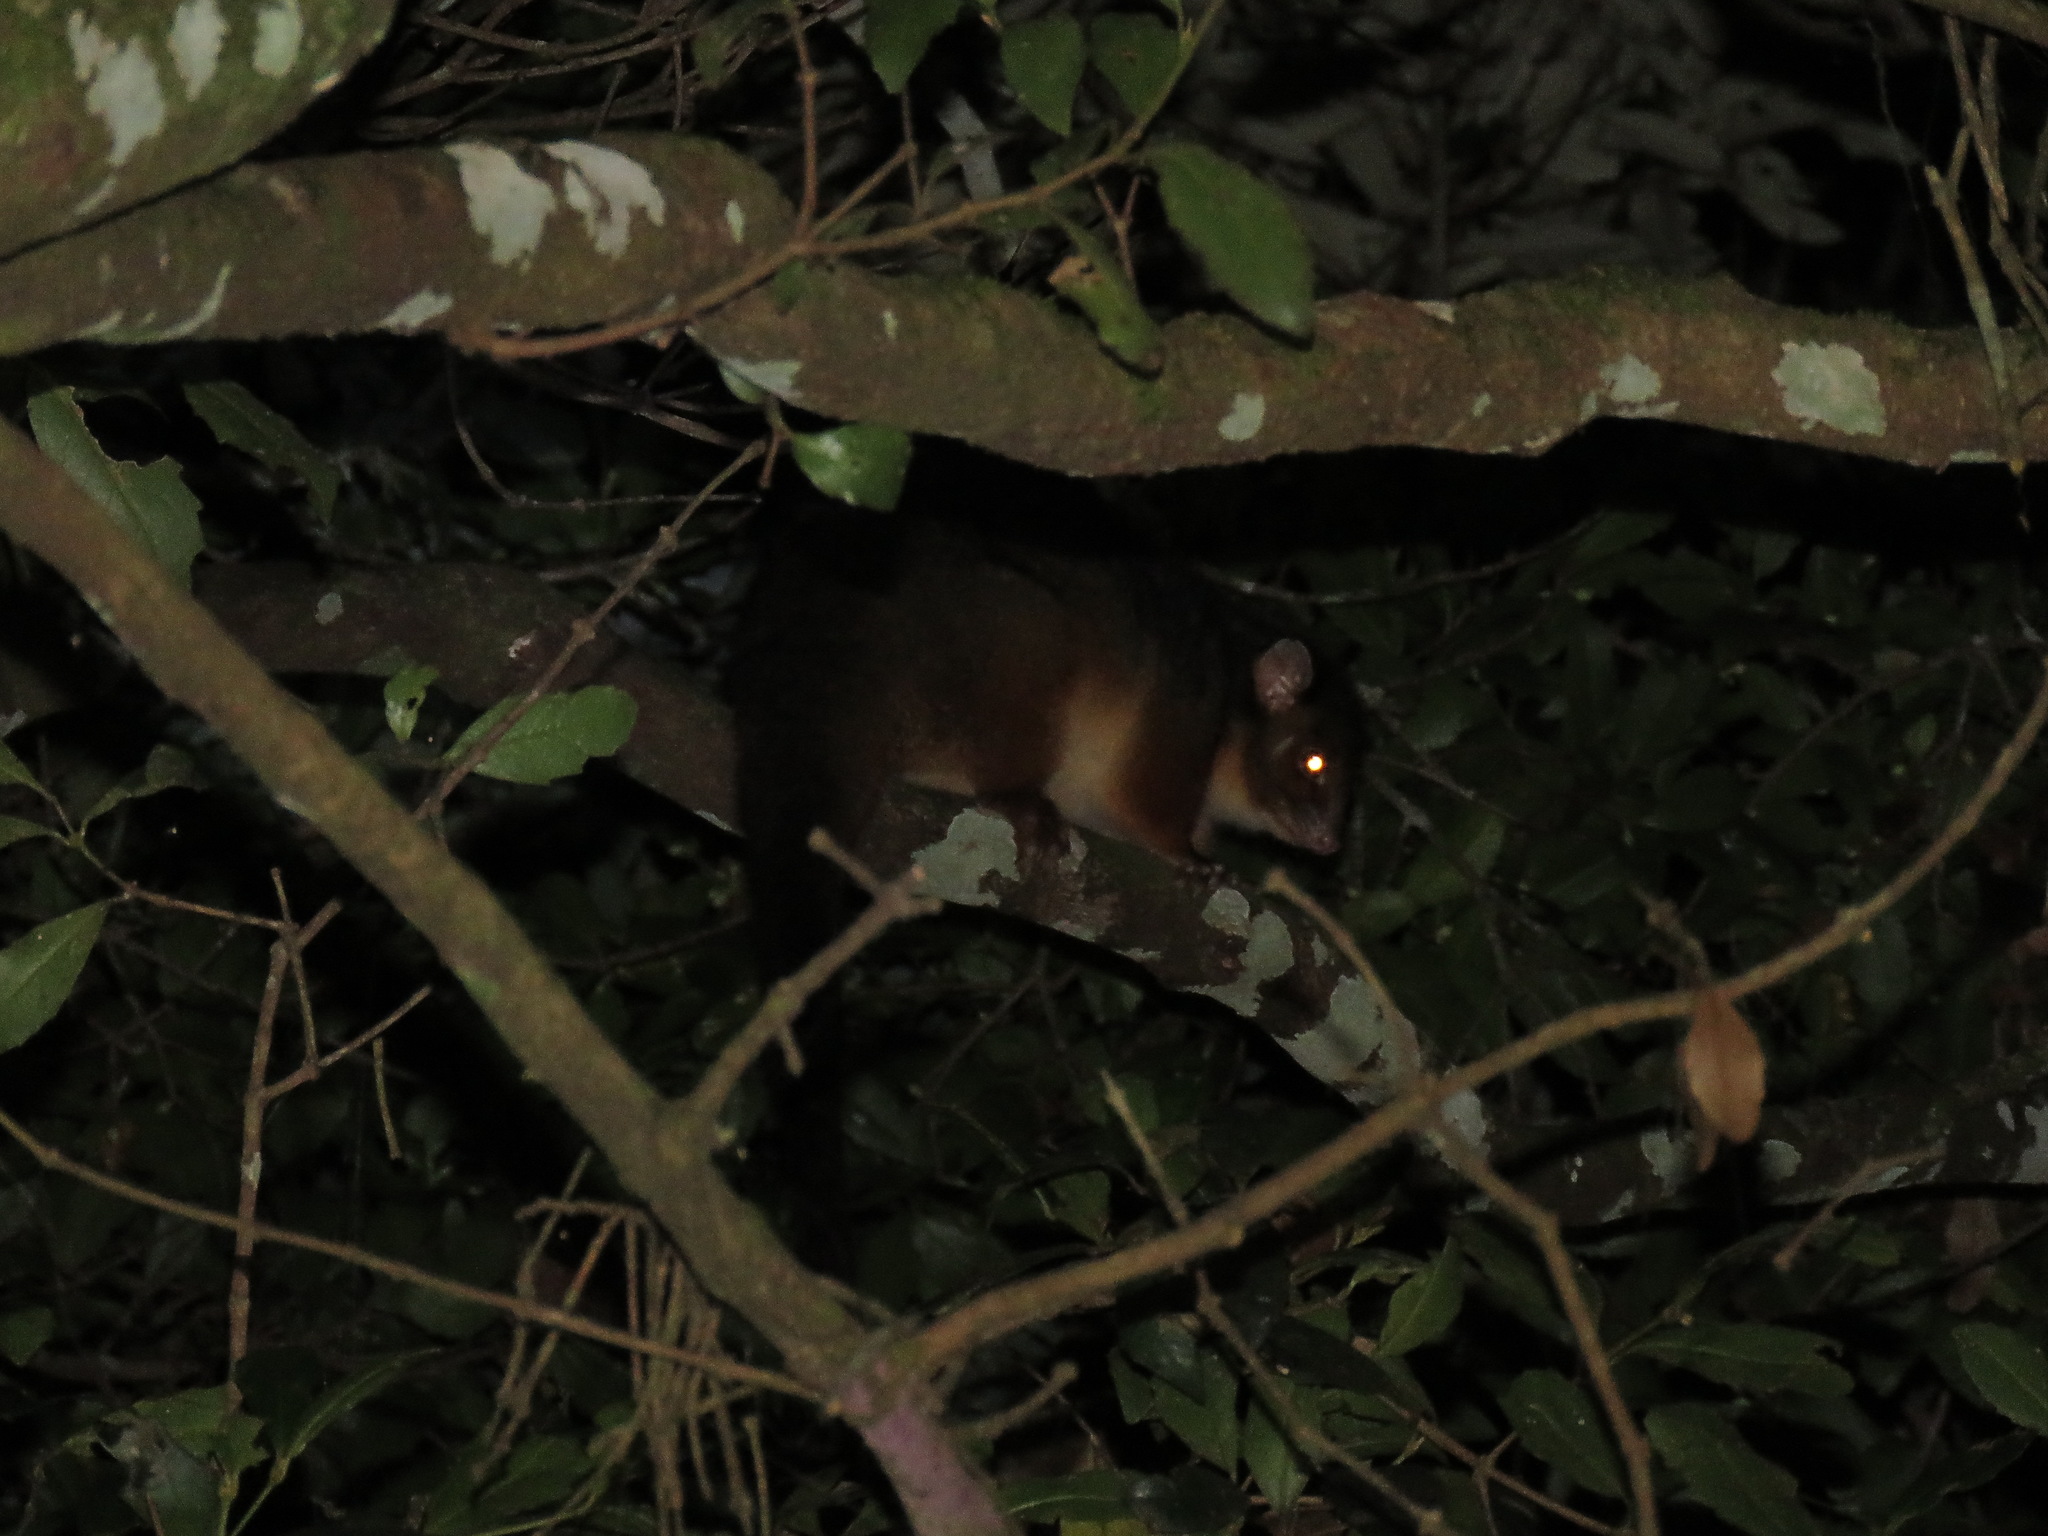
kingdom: Animalia
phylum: Chordata
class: Mammalia
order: Diprotodontia
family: Pseudocheiridae
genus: Pseudocheirus
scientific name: Pseudocheirus peregrinus
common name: Common ringtail possum
